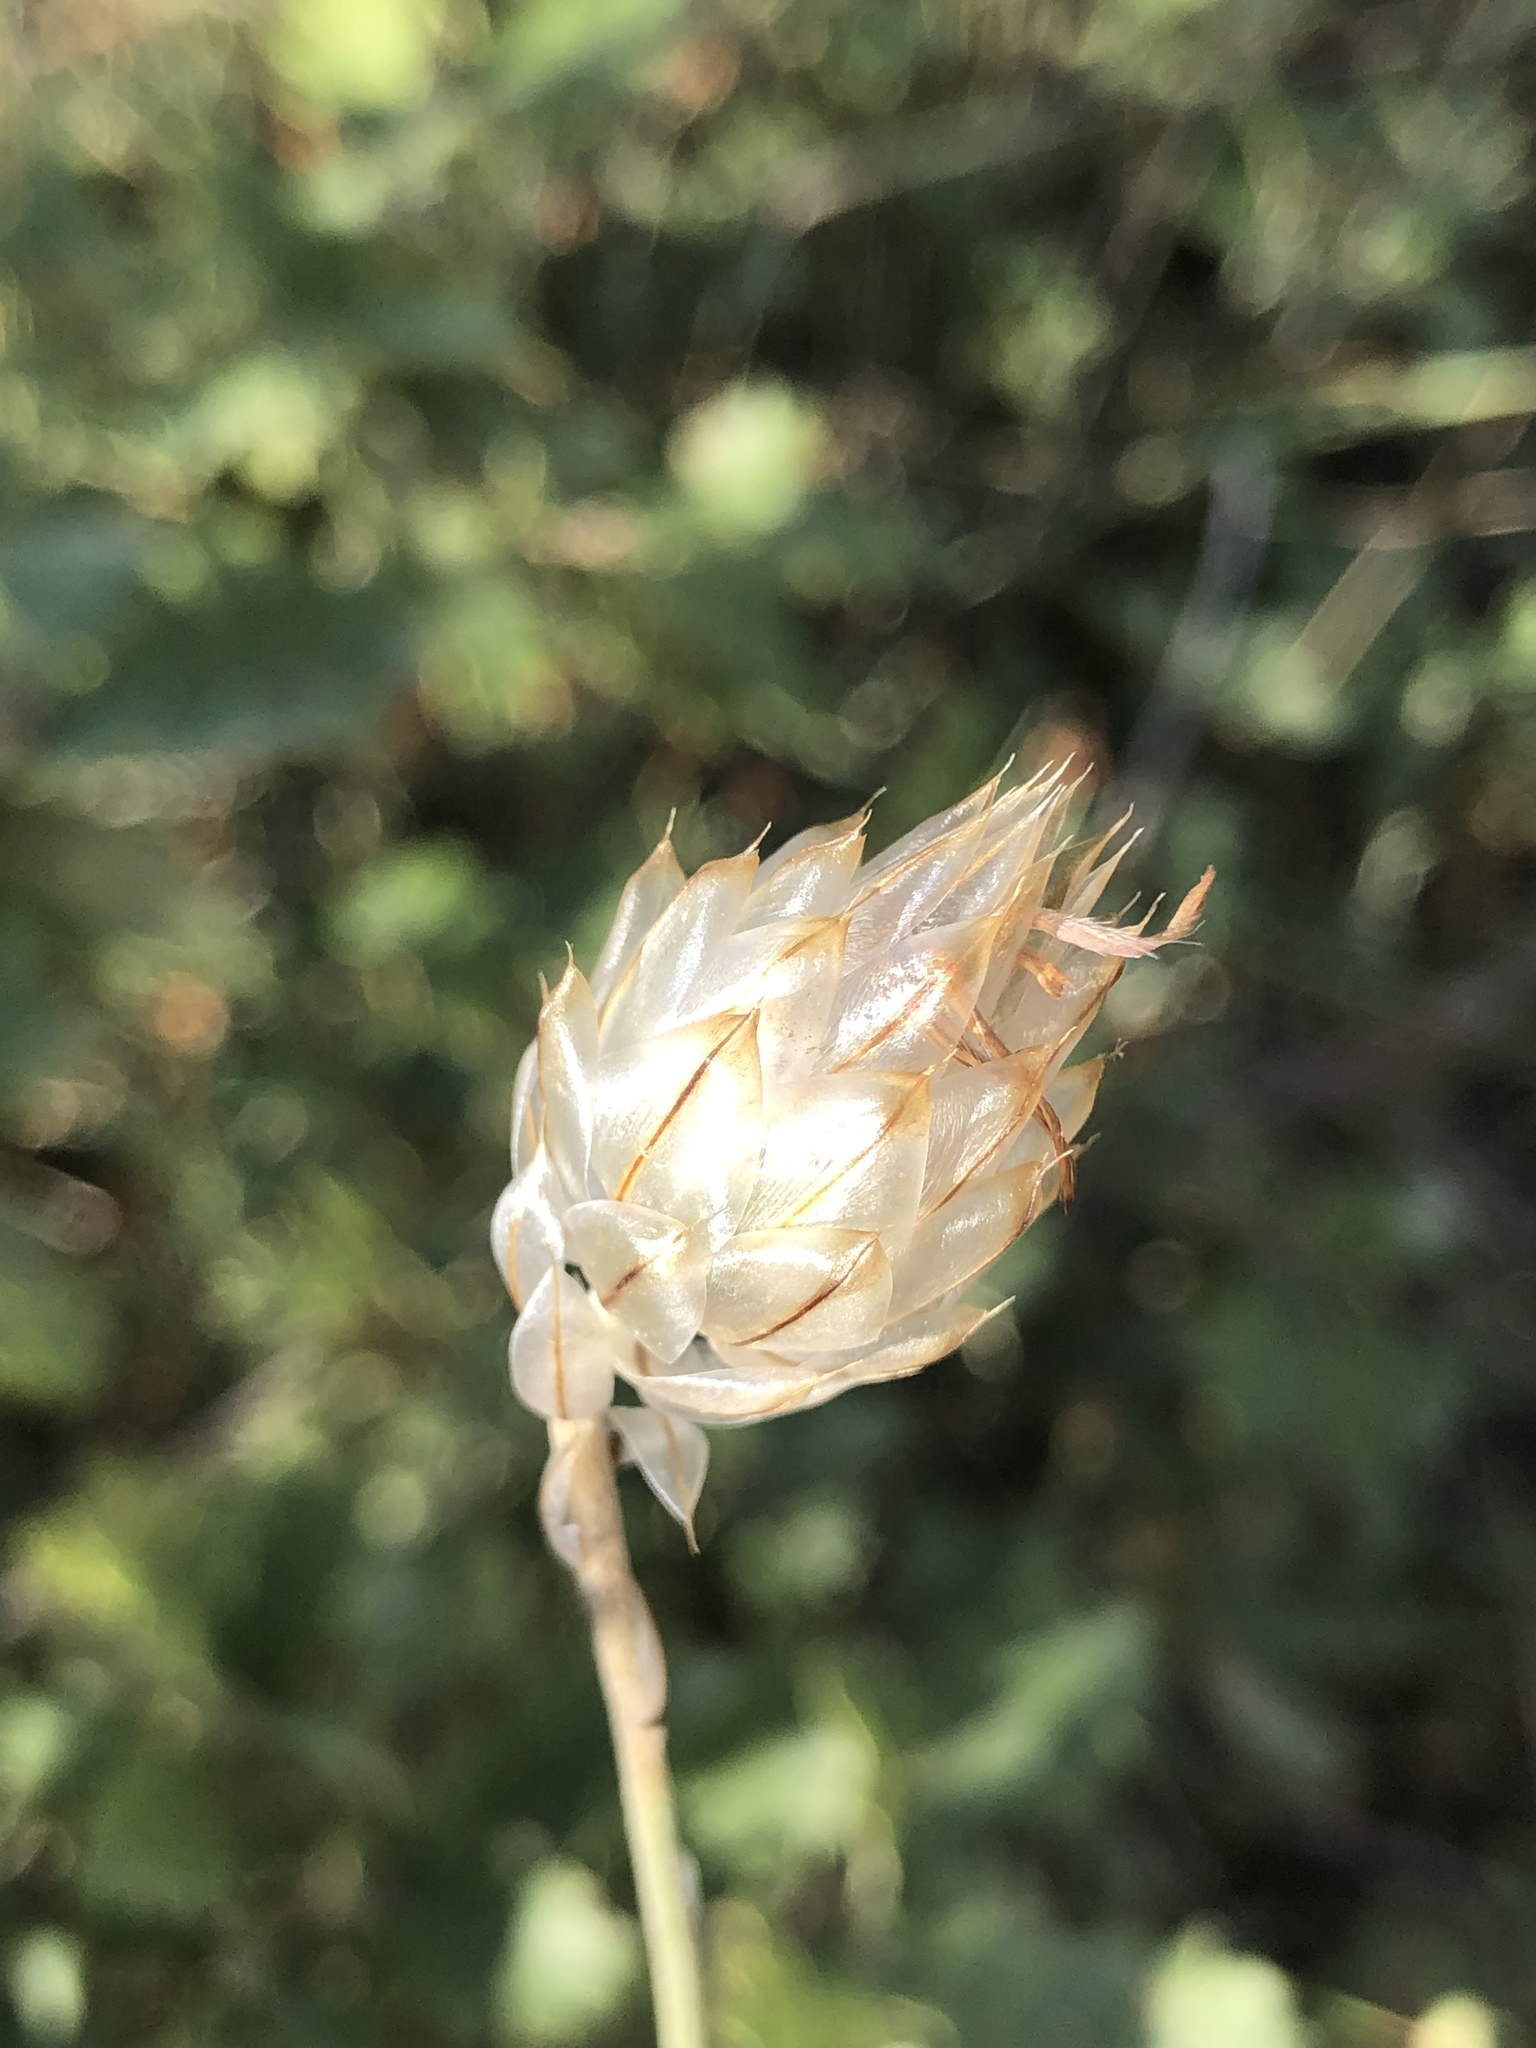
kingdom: Plantae
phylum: Tracheophyta
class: Magnoliopsida
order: Asterales
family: Asteraceae
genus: Catananche
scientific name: Catananche caerulea
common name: Blue cupidone
